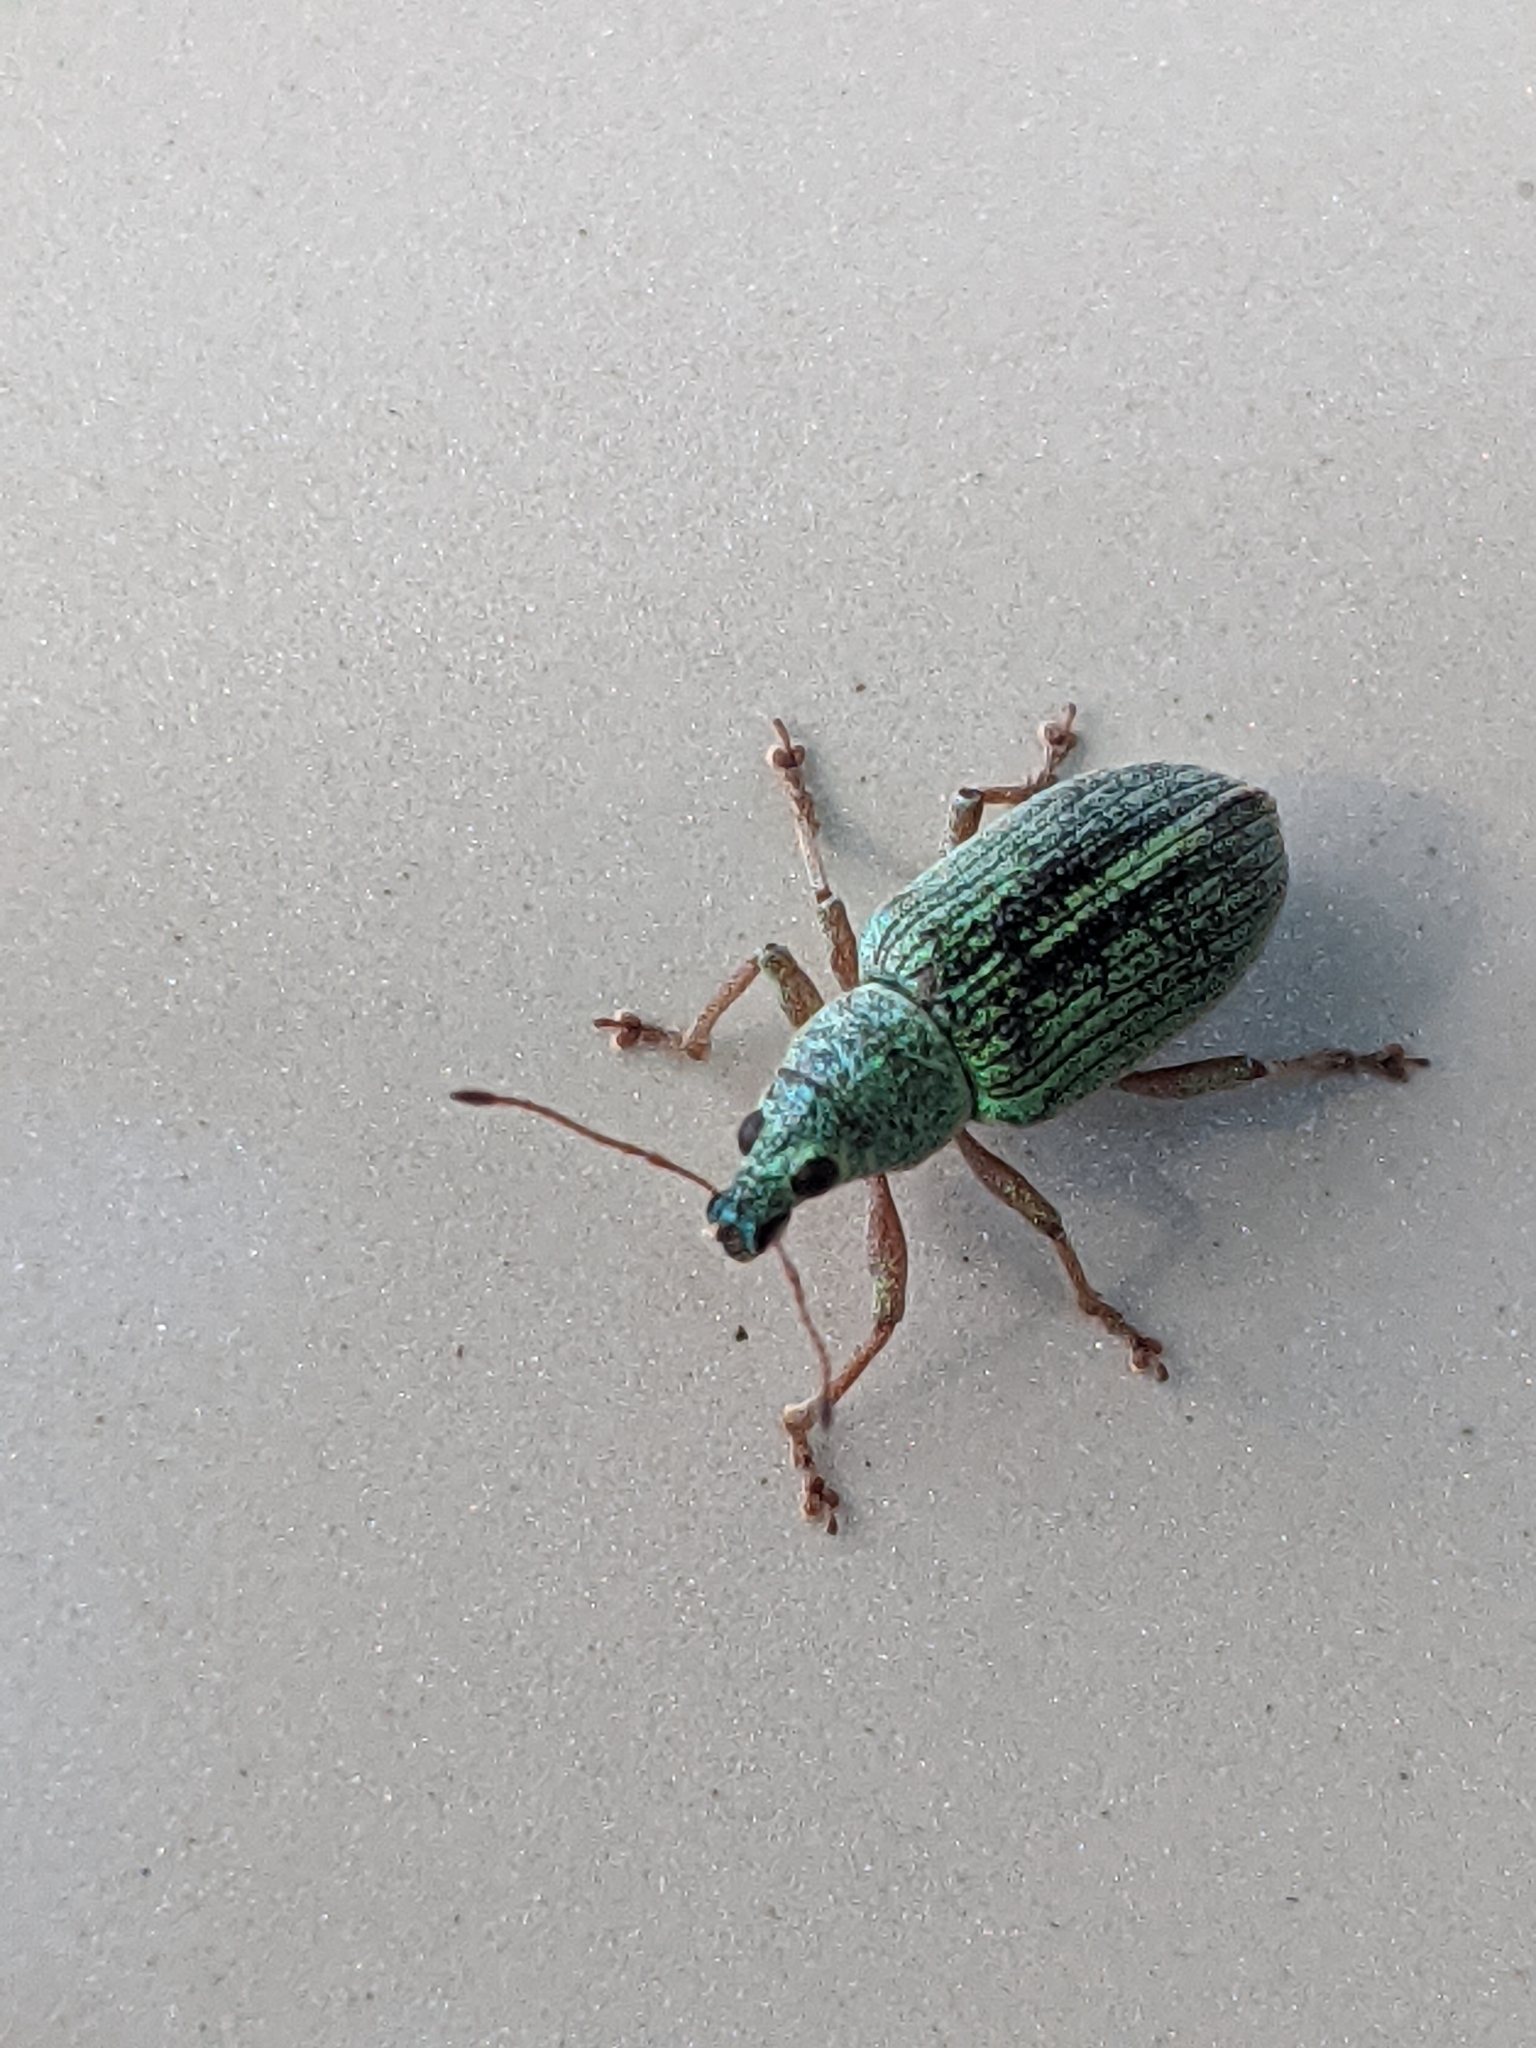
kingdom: Animalia
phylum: Arthropoda
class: Insecta
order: Coleoptera
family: Curculionidae
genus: Polydrusus
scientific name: Polydrusus formosus
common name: Weevil
